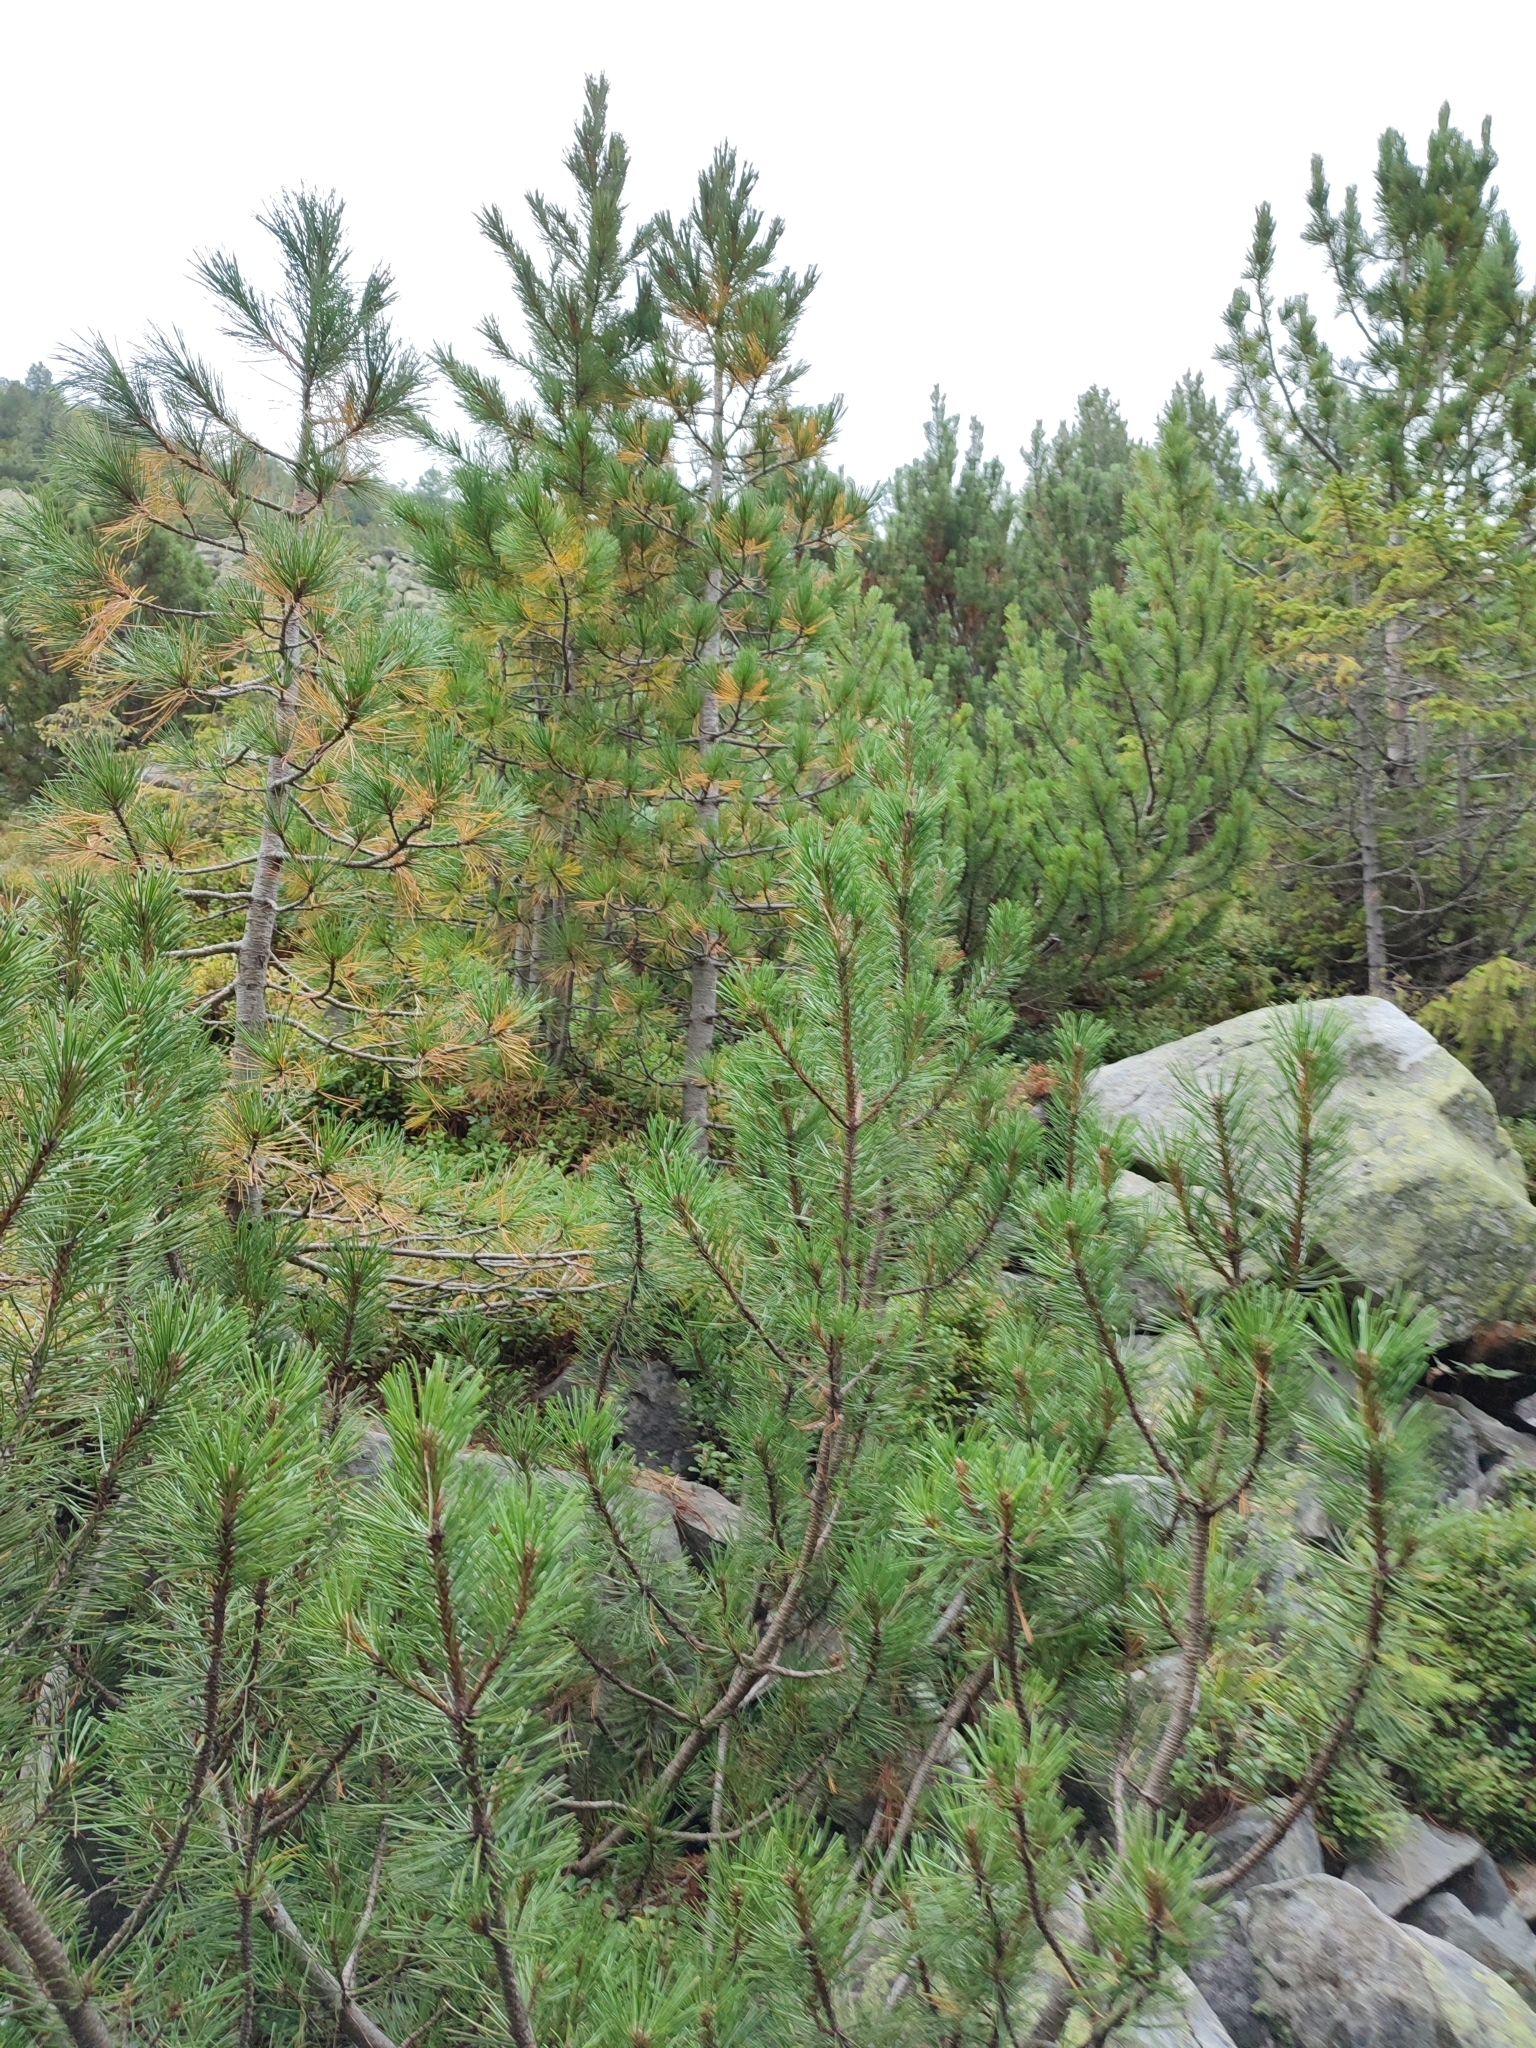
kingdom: Plantae
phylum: Tracheophyta
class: Pinopsida
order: Pinales
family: Pinaceae
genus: Pinus
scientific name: Pinus cembra
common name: Arolla pine
